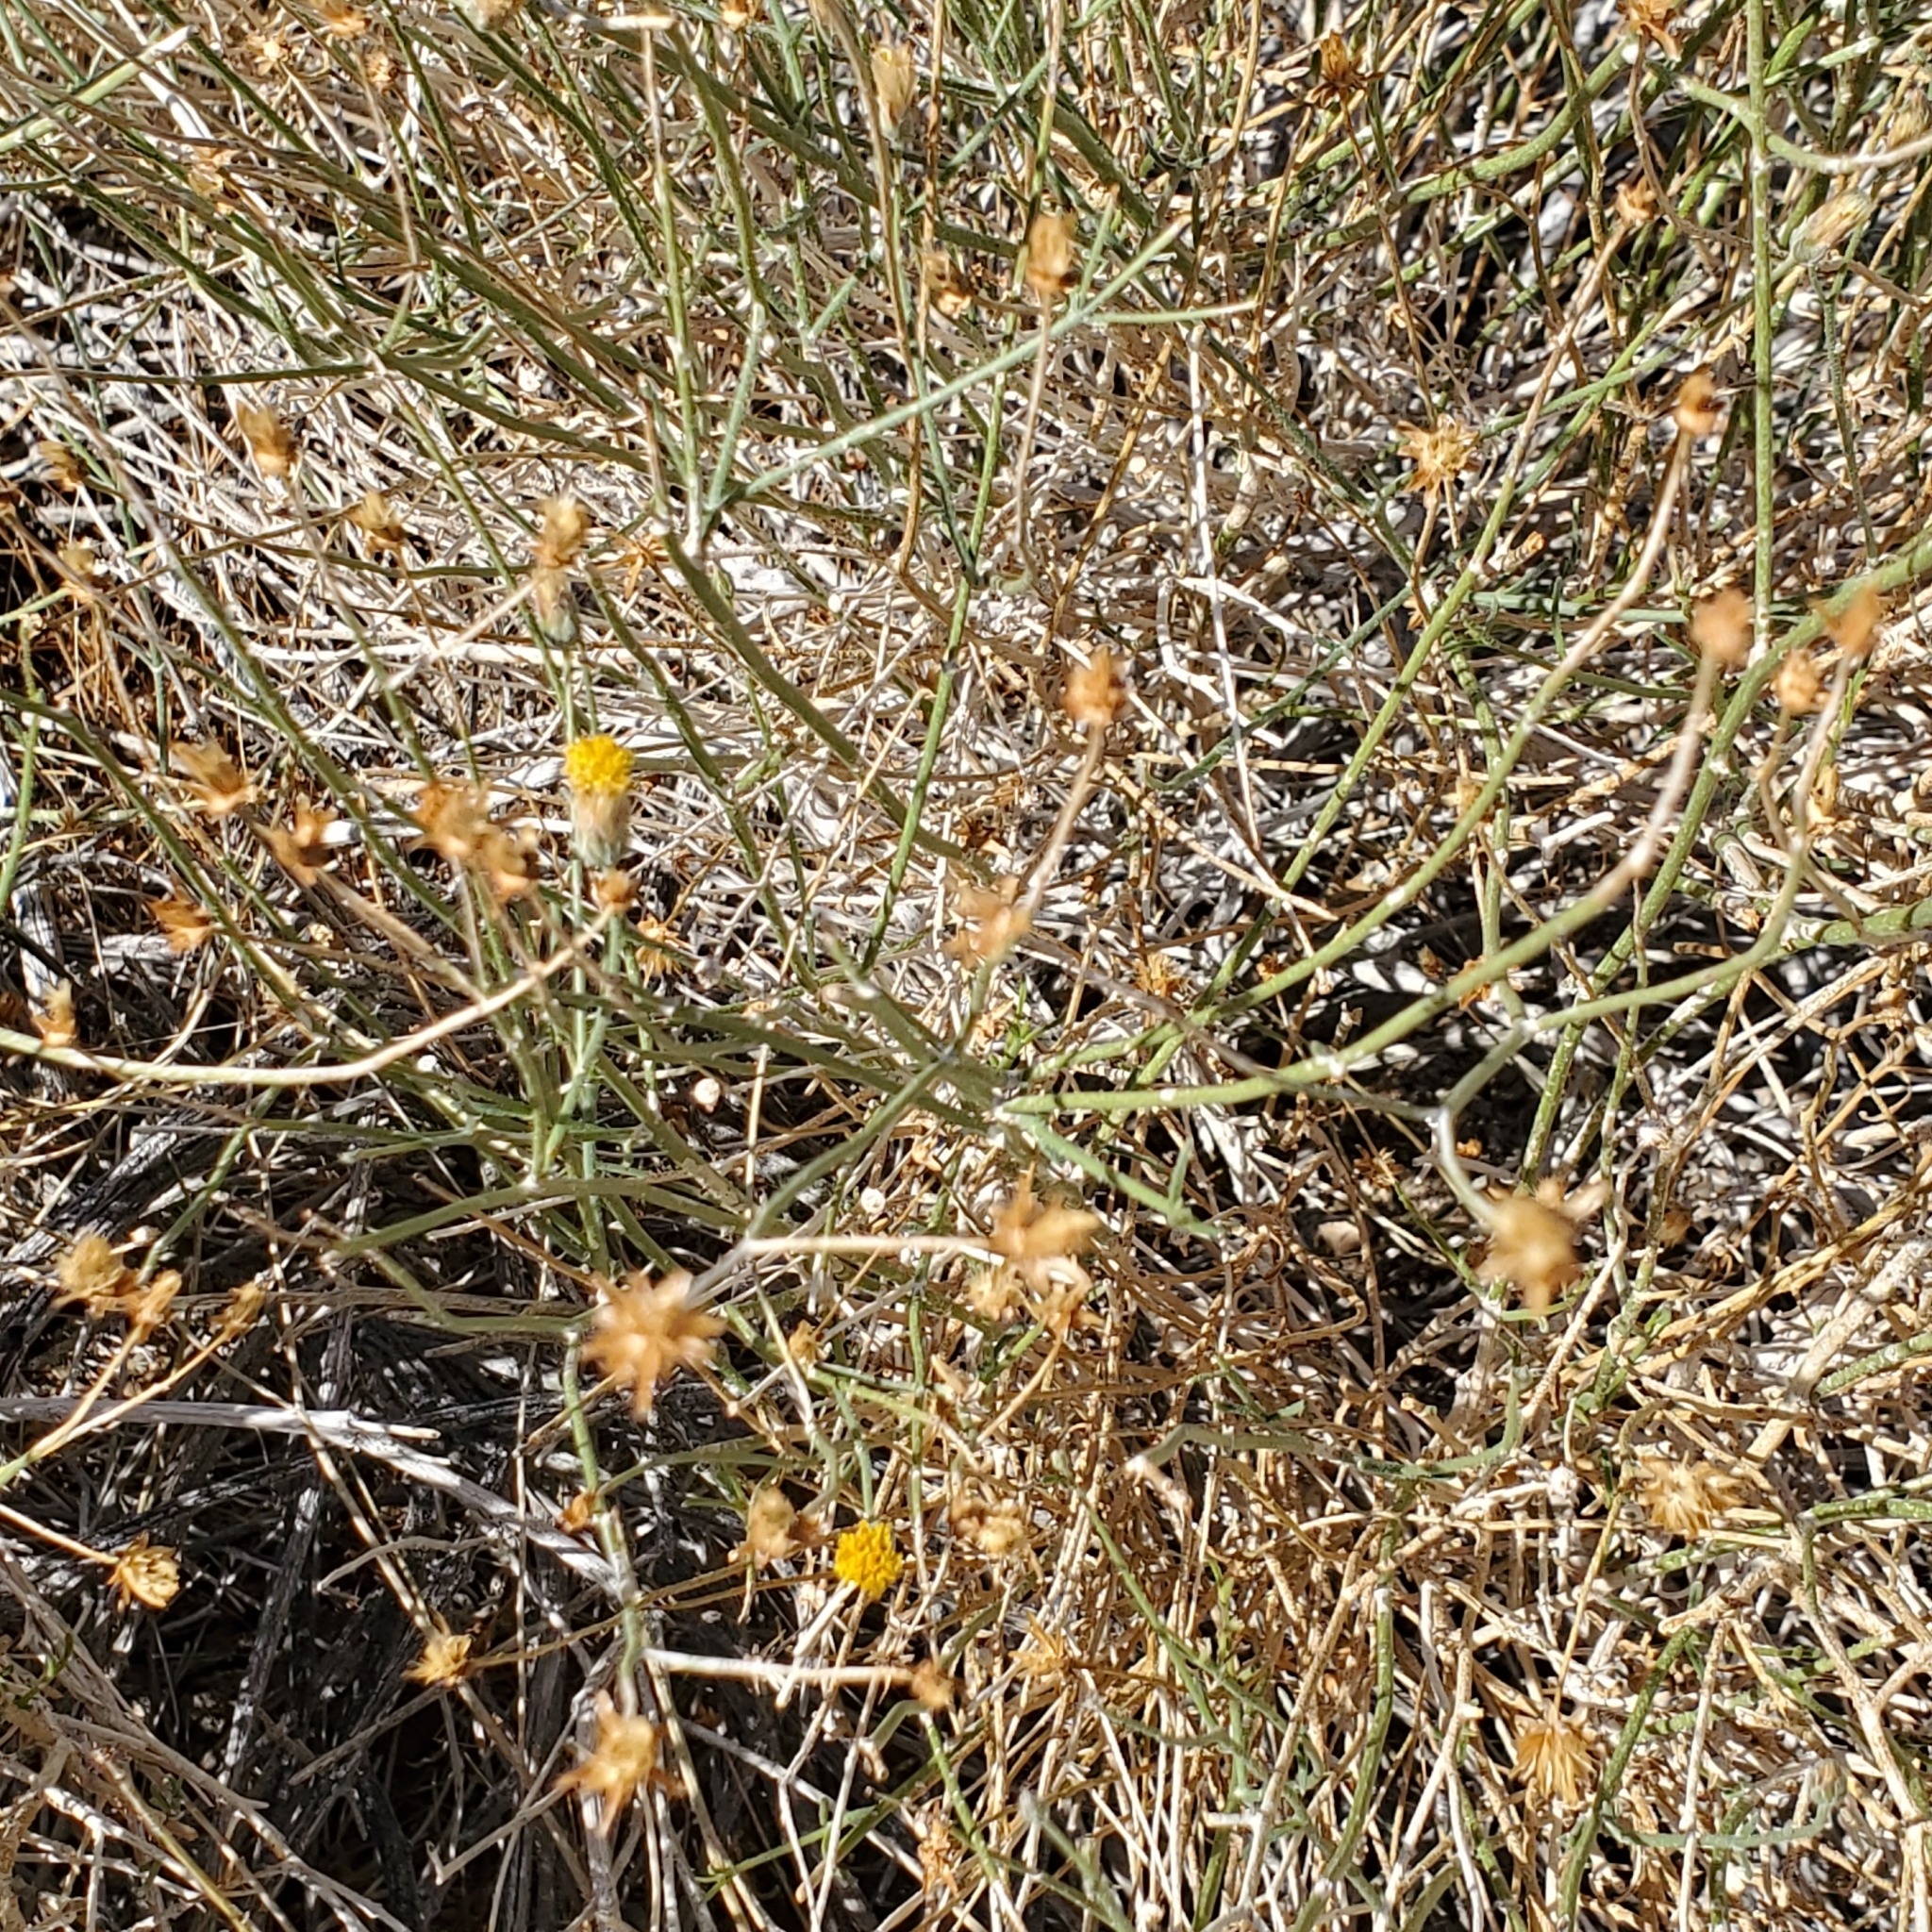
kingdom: Plantae
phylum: Tracheophyta
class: Magnoliopsida
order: Asterales
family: Asteraceae
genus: Bebbia
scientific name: Bebbia juncea
